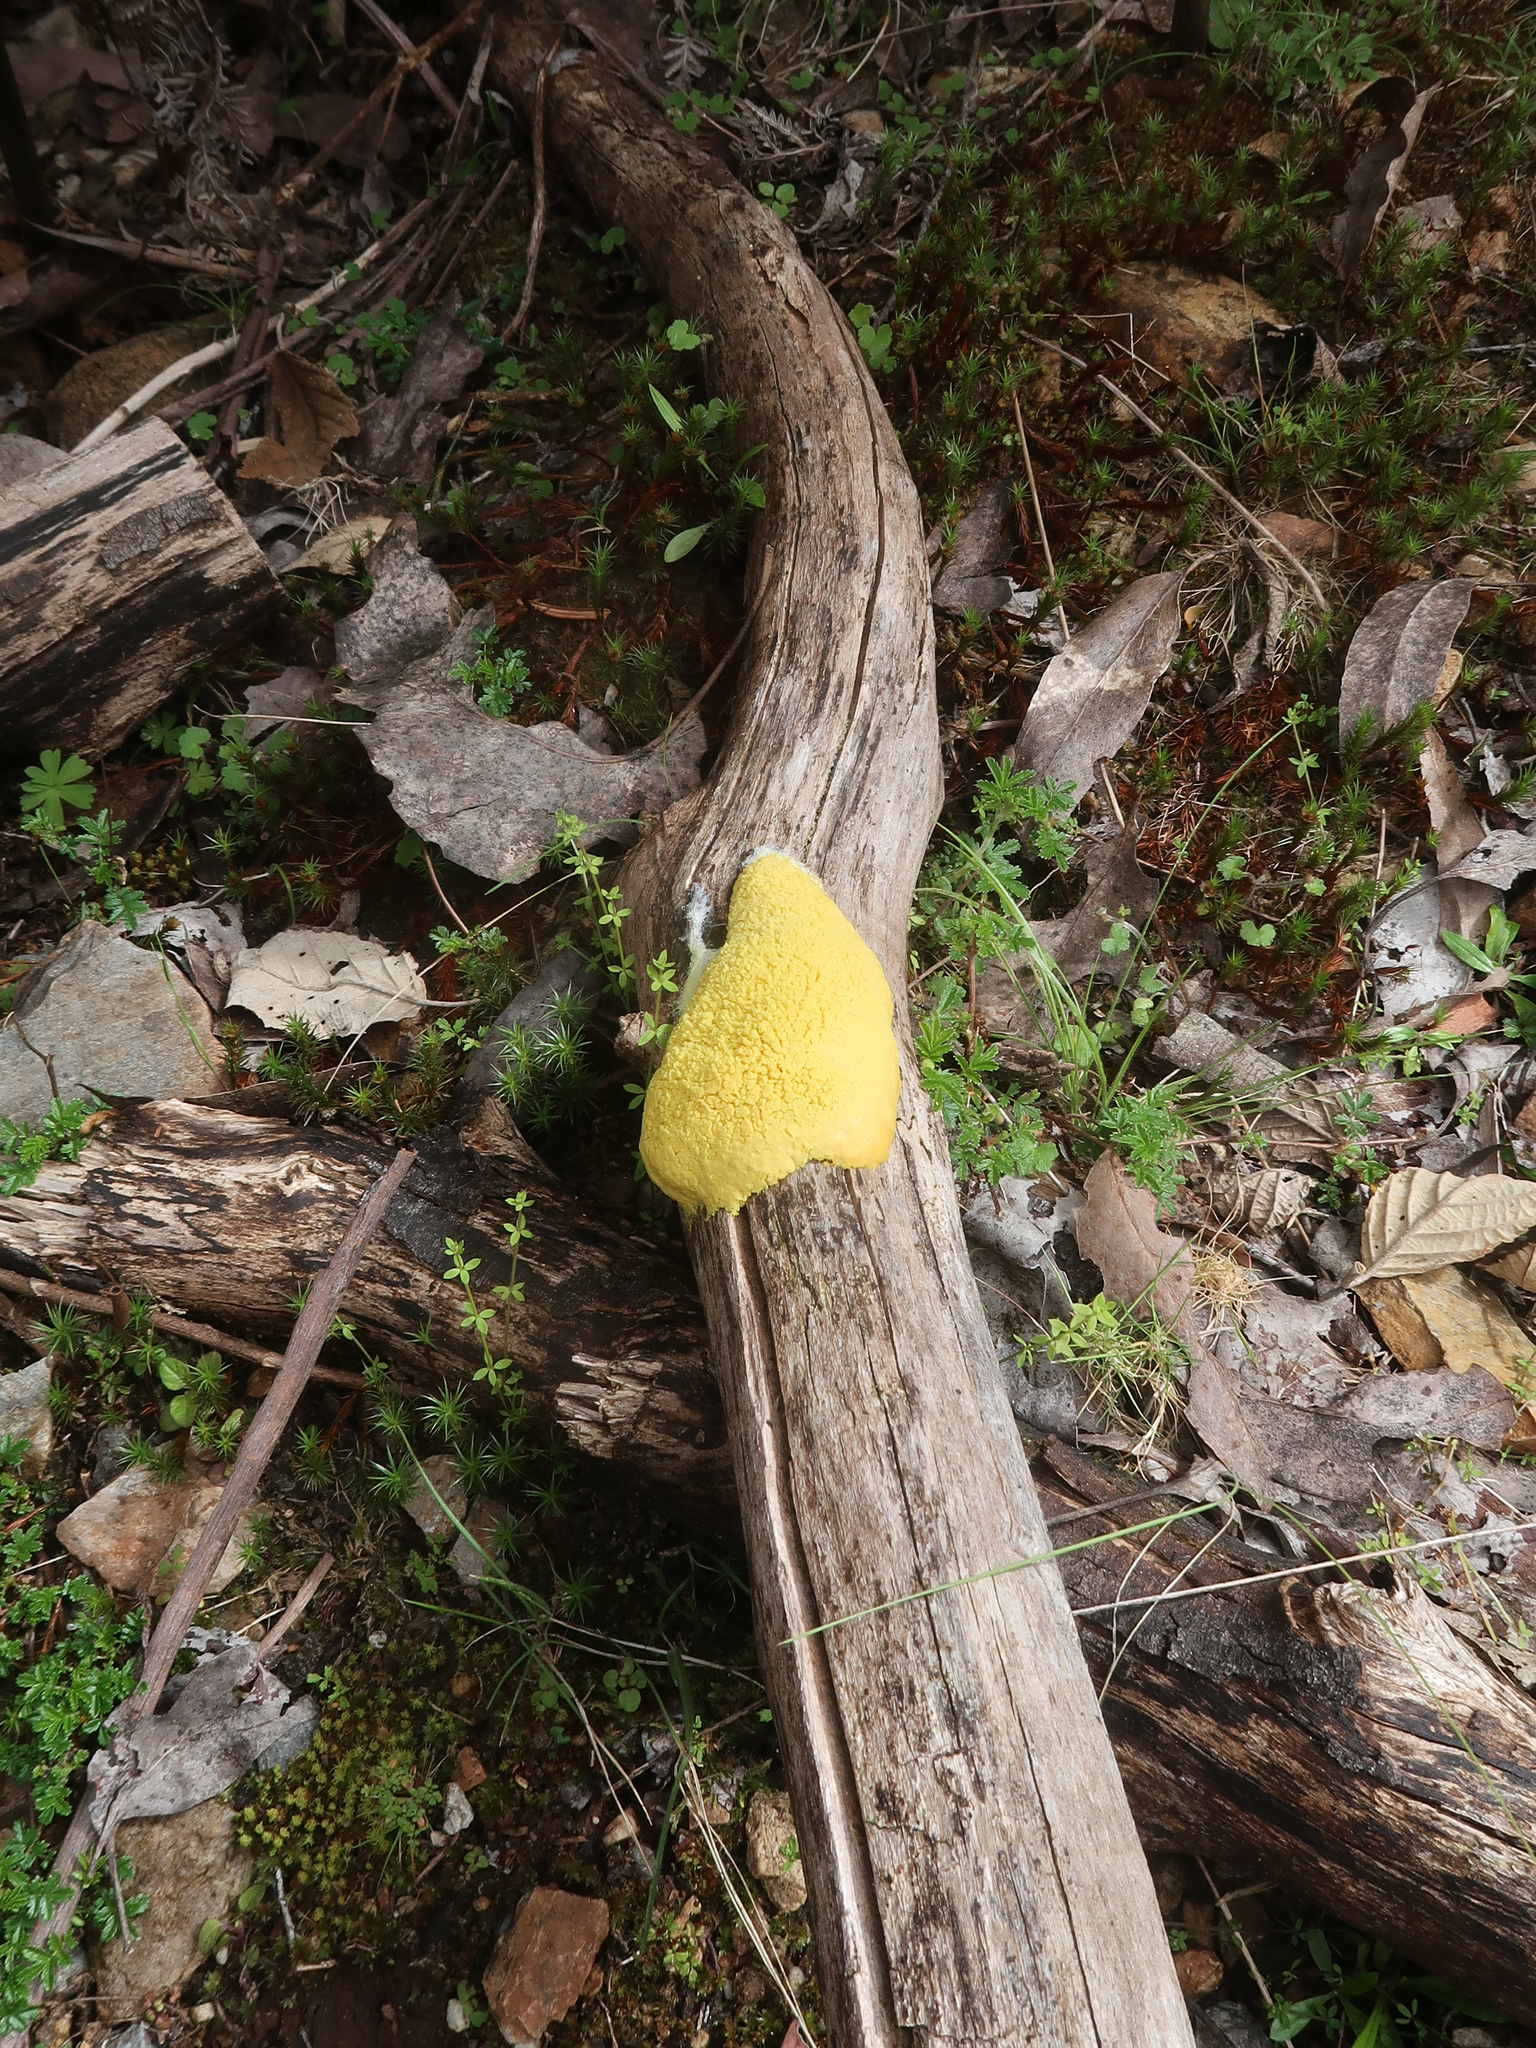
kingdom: Protozoa
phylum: Mycetozoa
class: Myxomycetes
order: Physarales
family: Physaraceae
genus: Fuligo
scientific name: Fuligo septica
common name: Dog vomit slime mold
